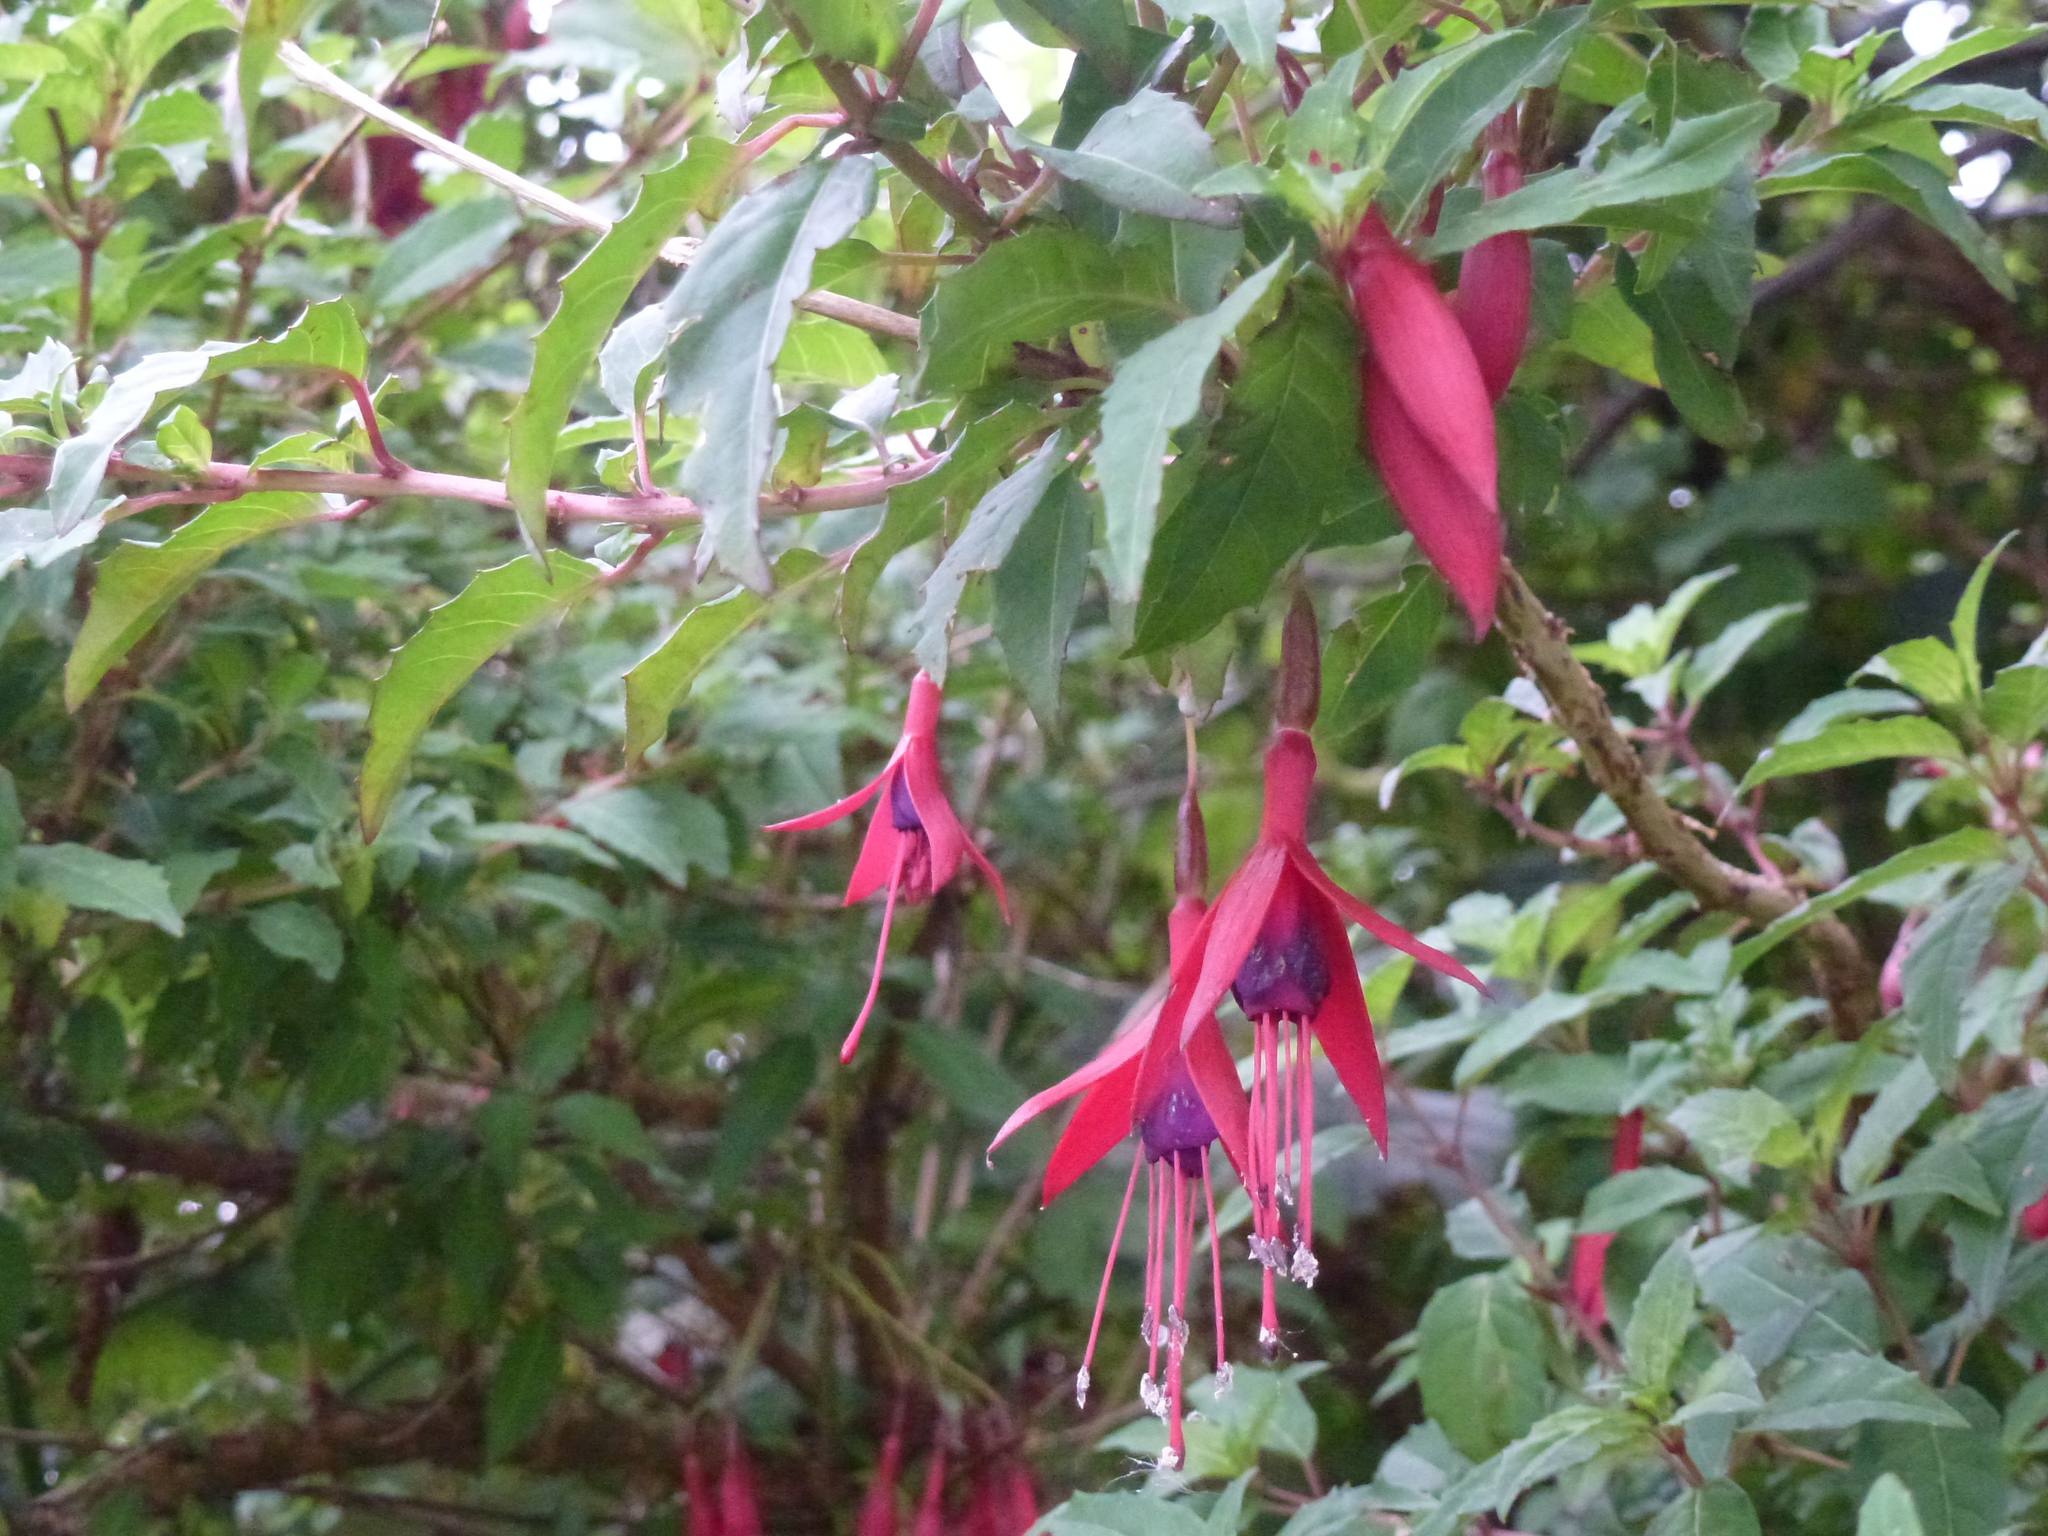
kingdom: Plantae
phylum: Tracheophyta
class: Magnoliopsida
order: Myrtales
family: Onagraceae
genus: Fuchsia
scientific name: Fuchsia magellanica
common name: Hardy fuchsia
